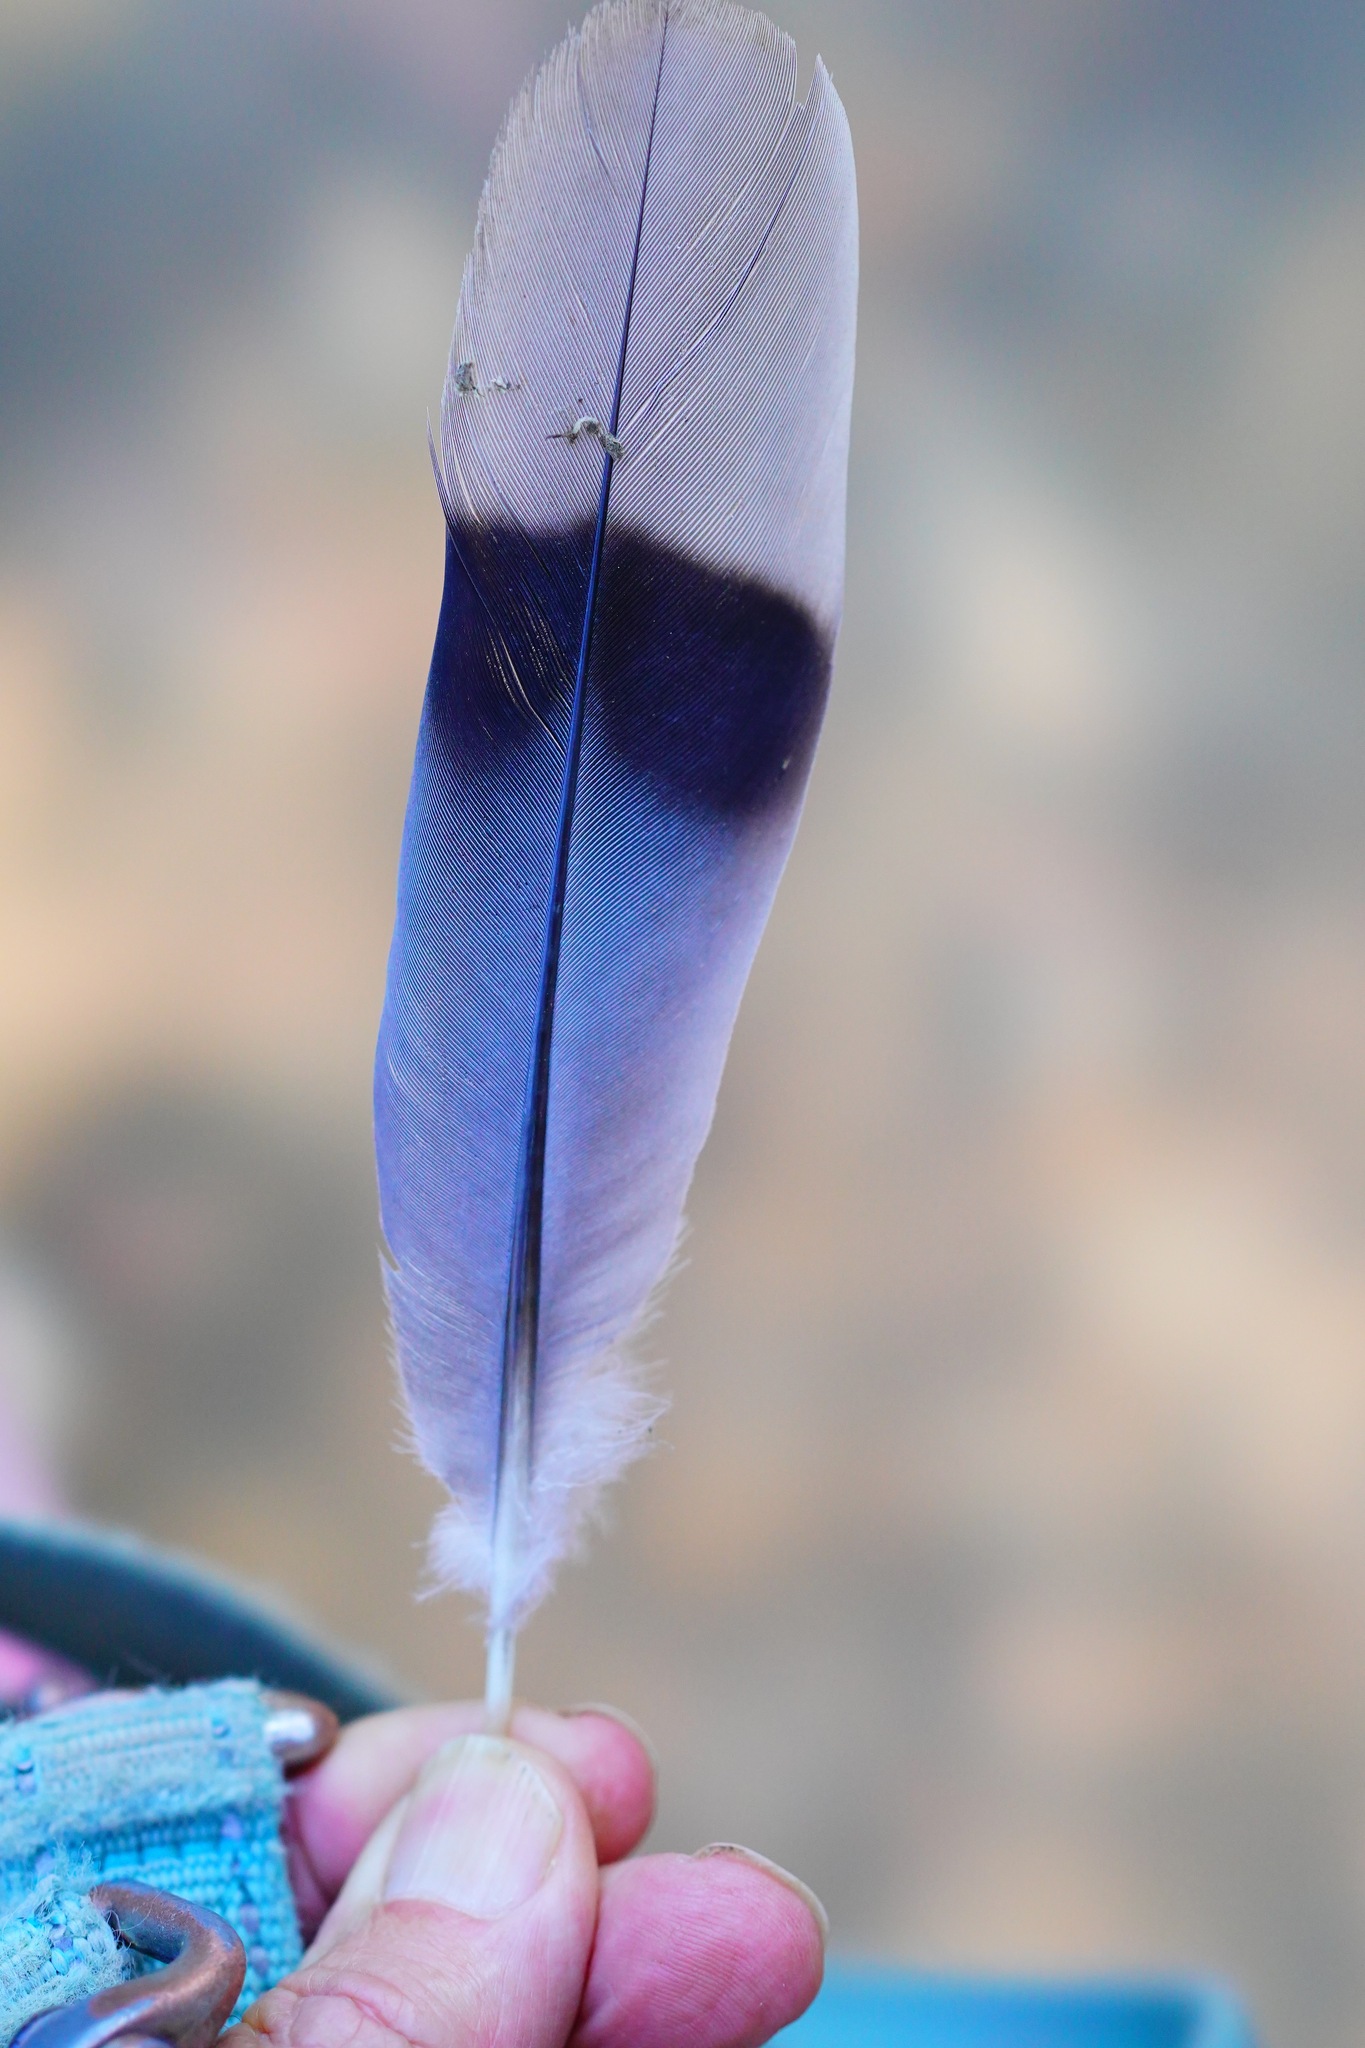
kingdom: Animalia
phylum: Chordata
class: Aves
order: Columbiformes
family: Columbidae
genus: Patagioenas
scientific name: Patagioenas fasciata
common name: Band-tailed pigeon
